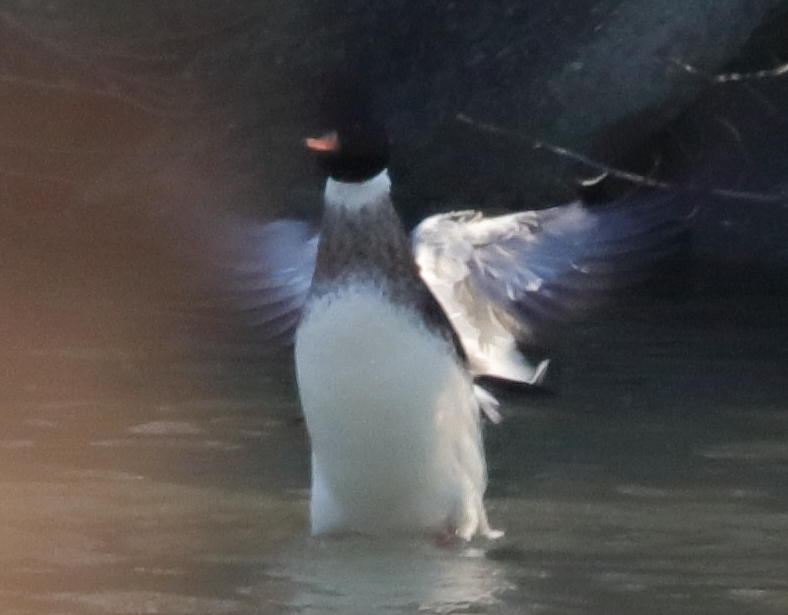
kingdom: Animalia
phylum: Chordata
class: Aves
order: Anseriformes
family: Anatidae
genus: Mergus
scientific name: Mergus serrator
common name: Red-breasted merganser
